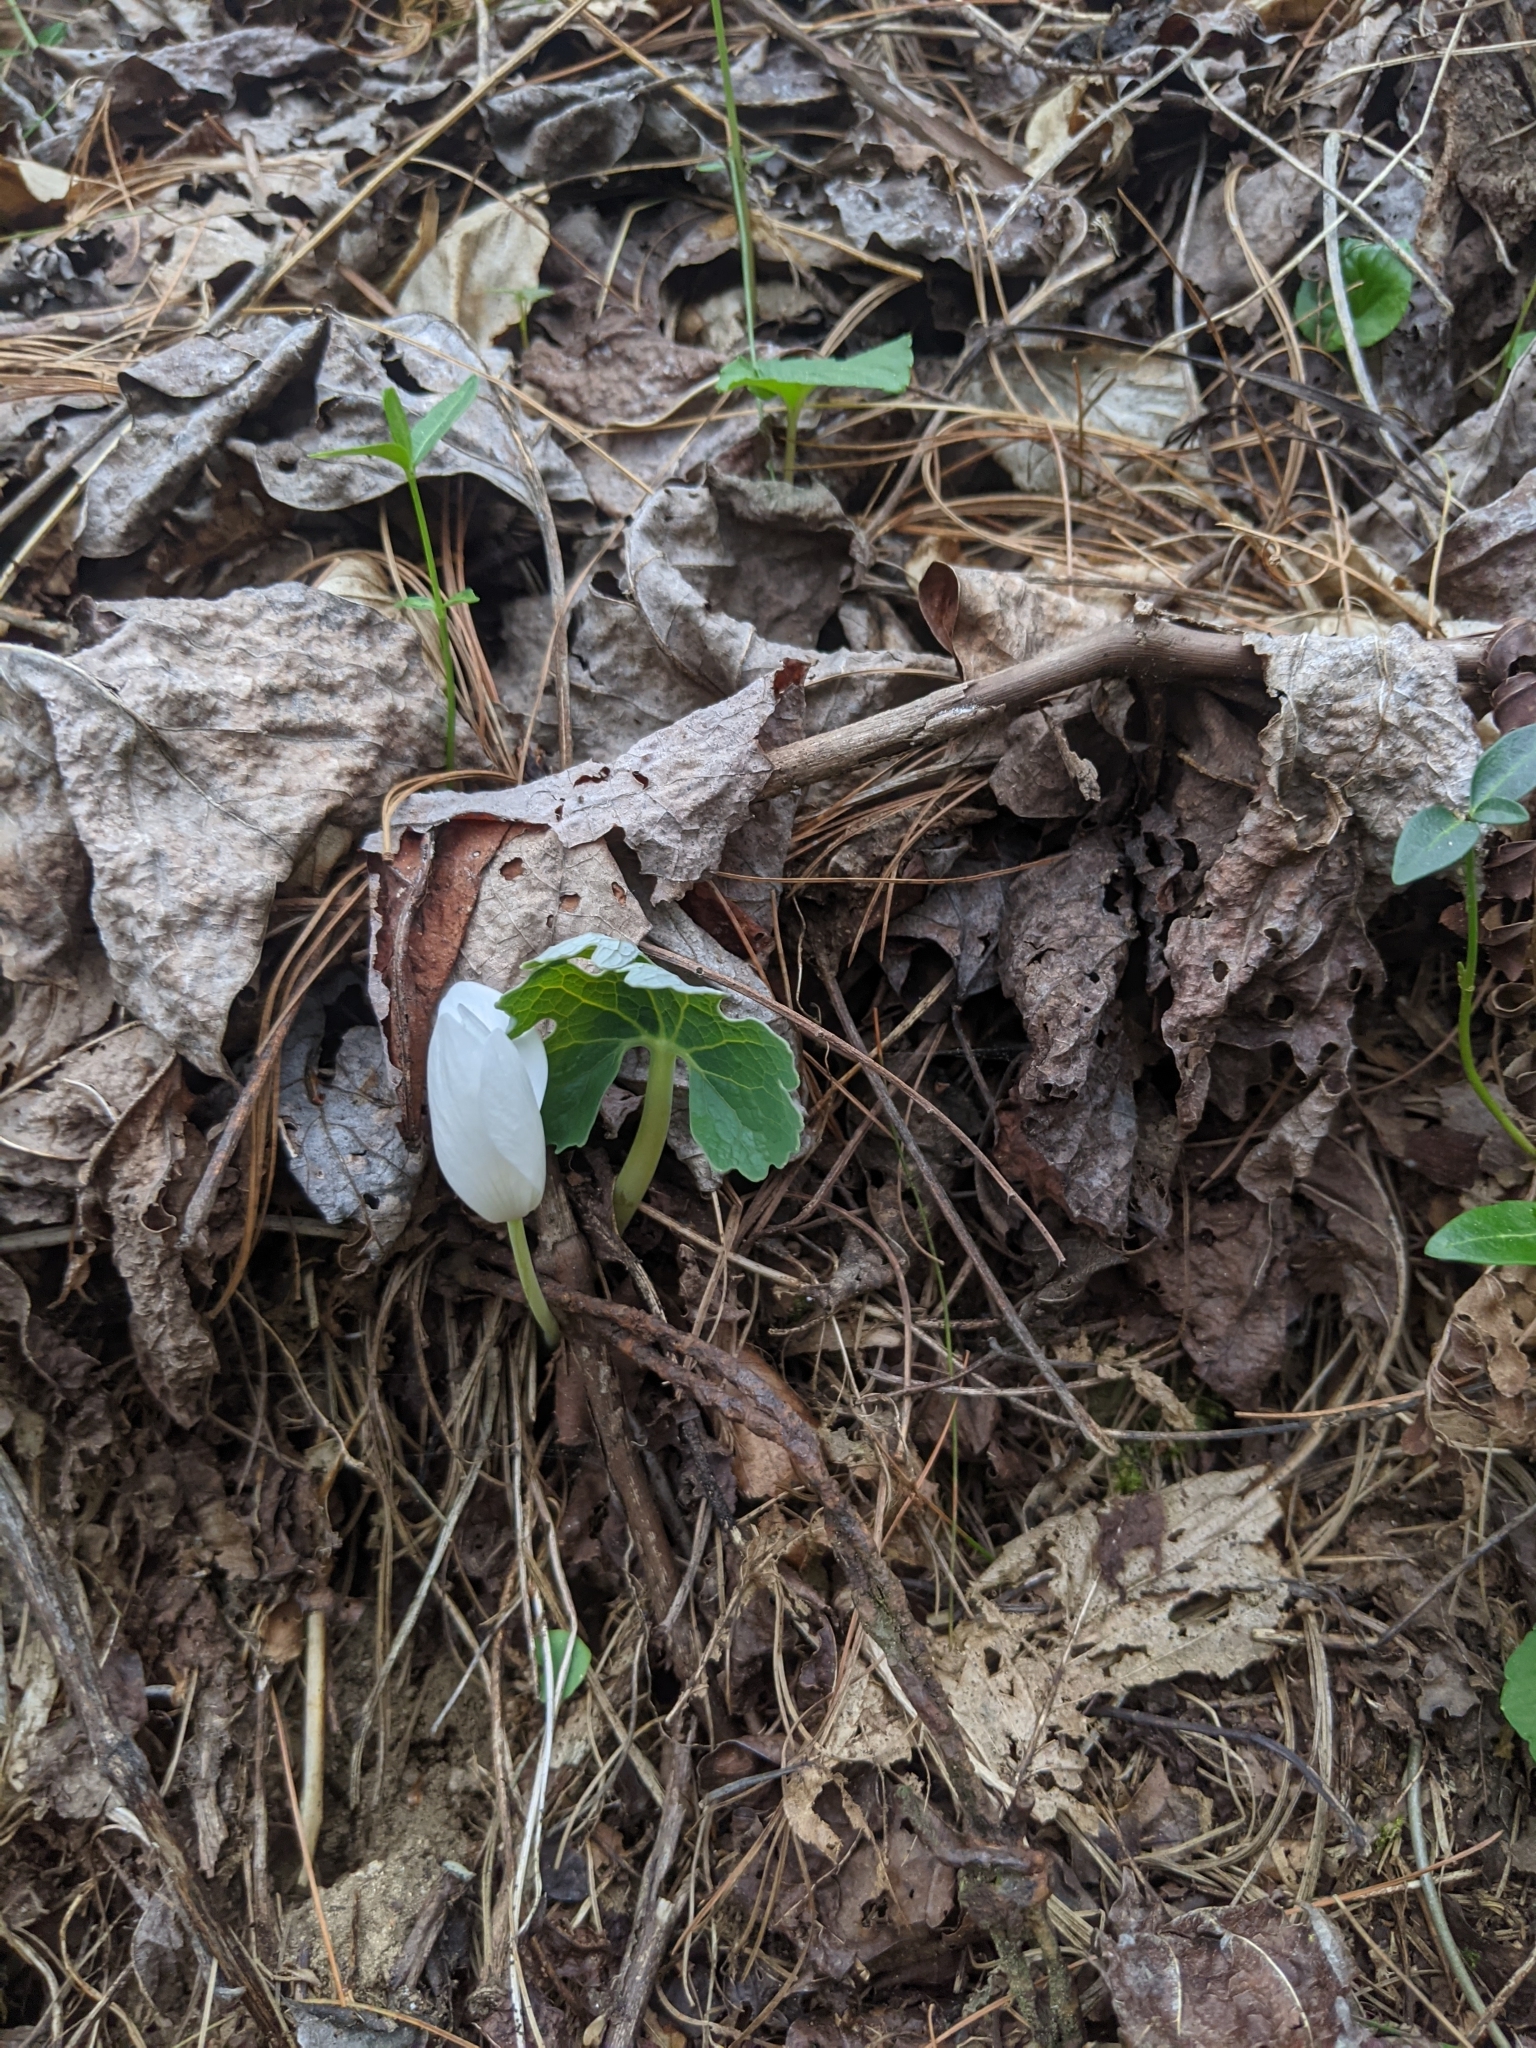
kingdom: Plantae
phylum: Tracheophyta
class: Magnoliopsida
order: Ranunculales
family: Papaveraceae
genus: Sanguinaria
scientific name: Sanguinaria canadensis
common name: Bloodroot
